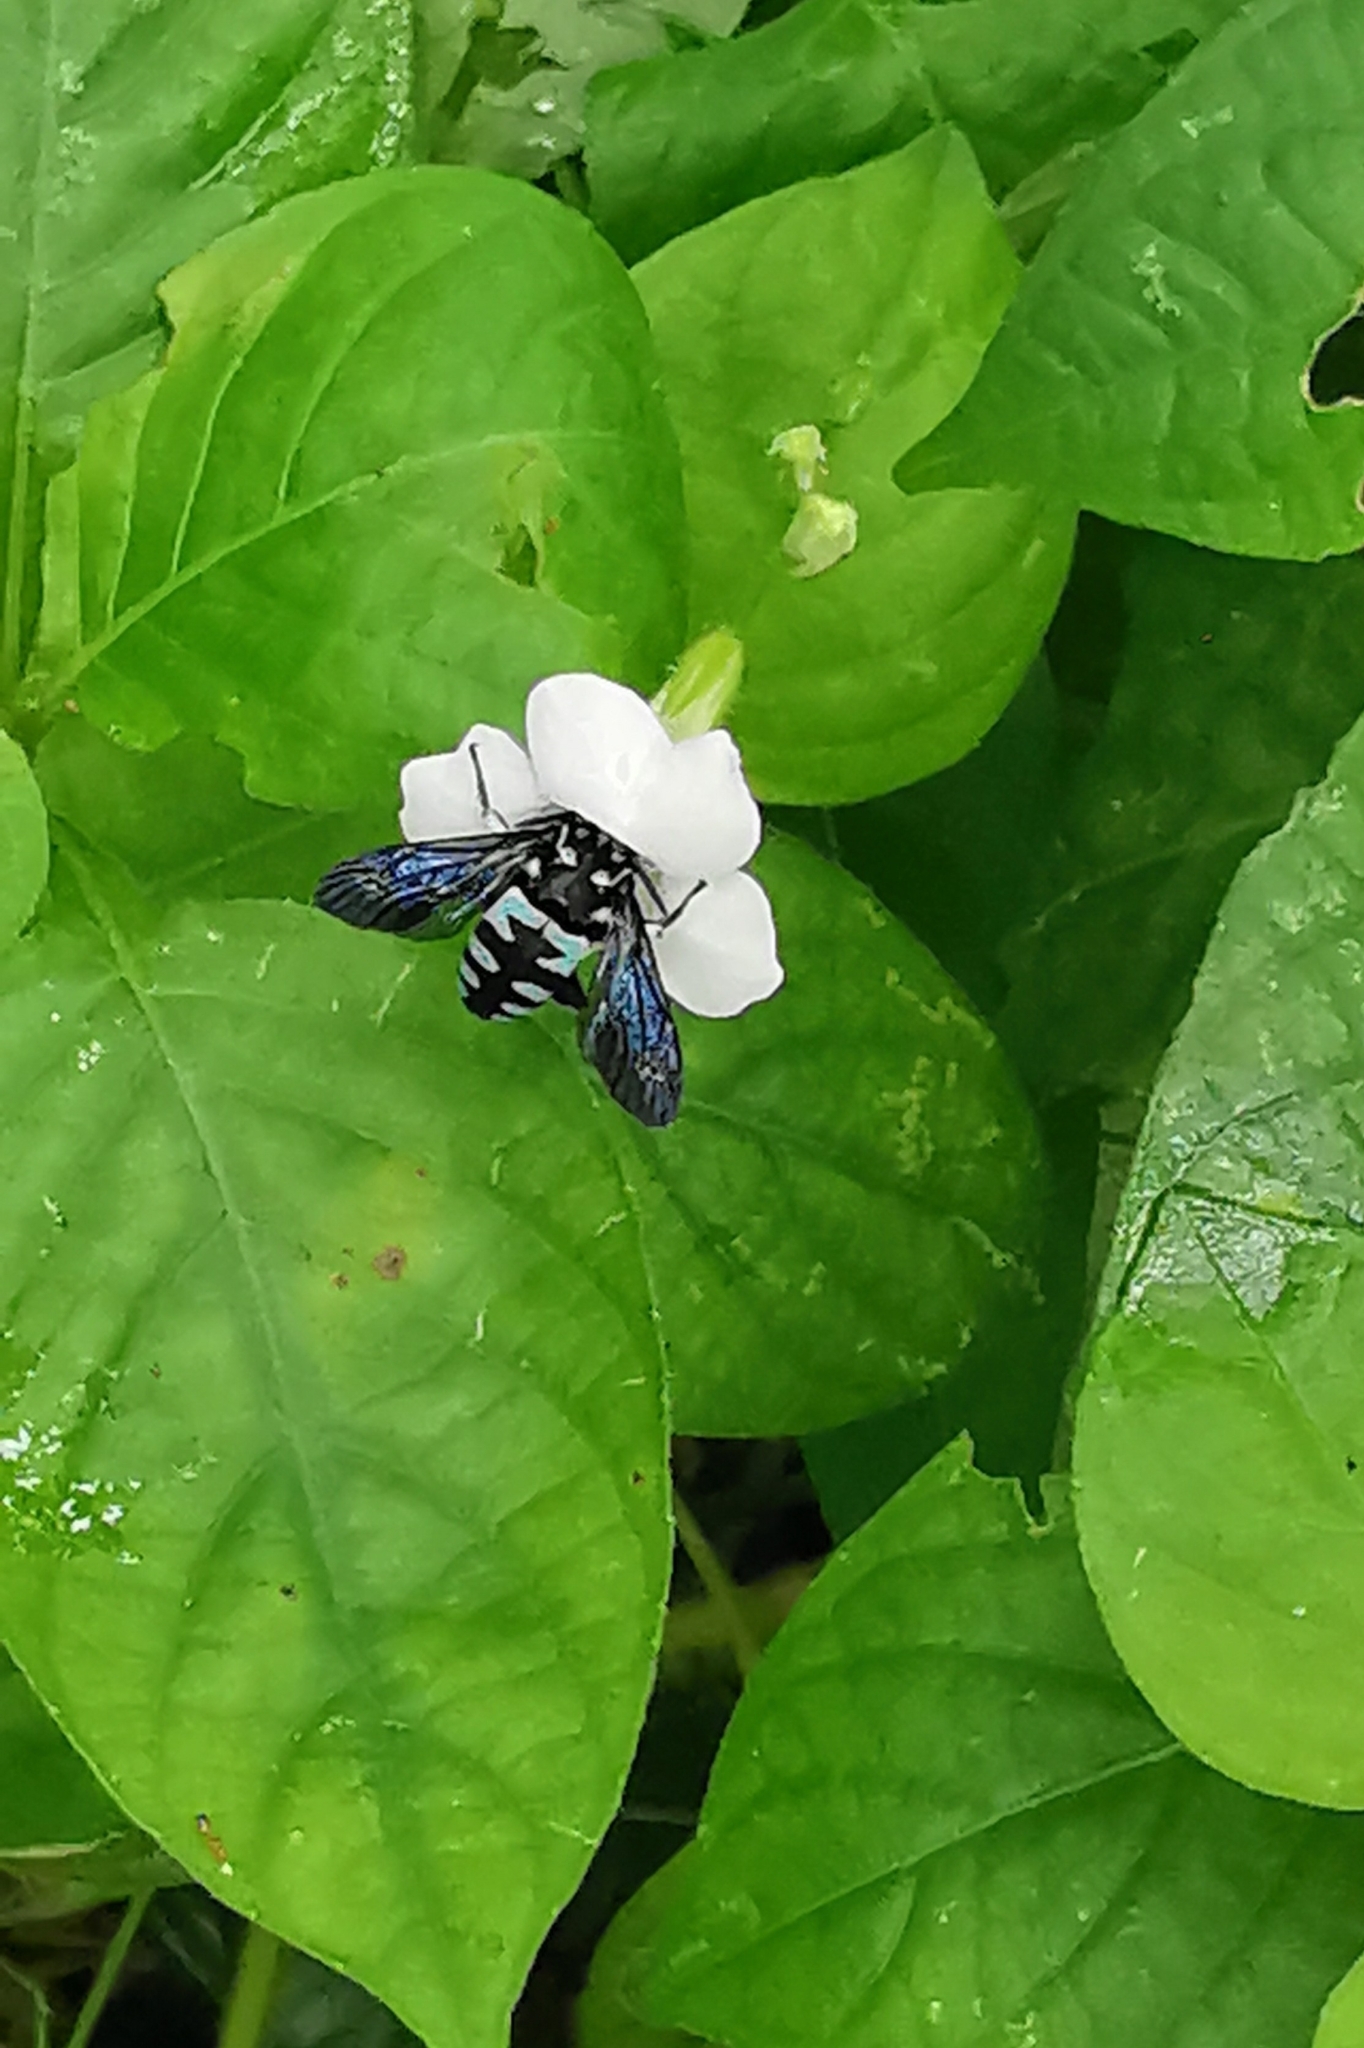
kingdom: Animalia
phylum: Arthropoda
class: Insecta
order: Hymenoptera
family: Apidae
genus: Thyreus
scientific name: Thyreus lilacinus
